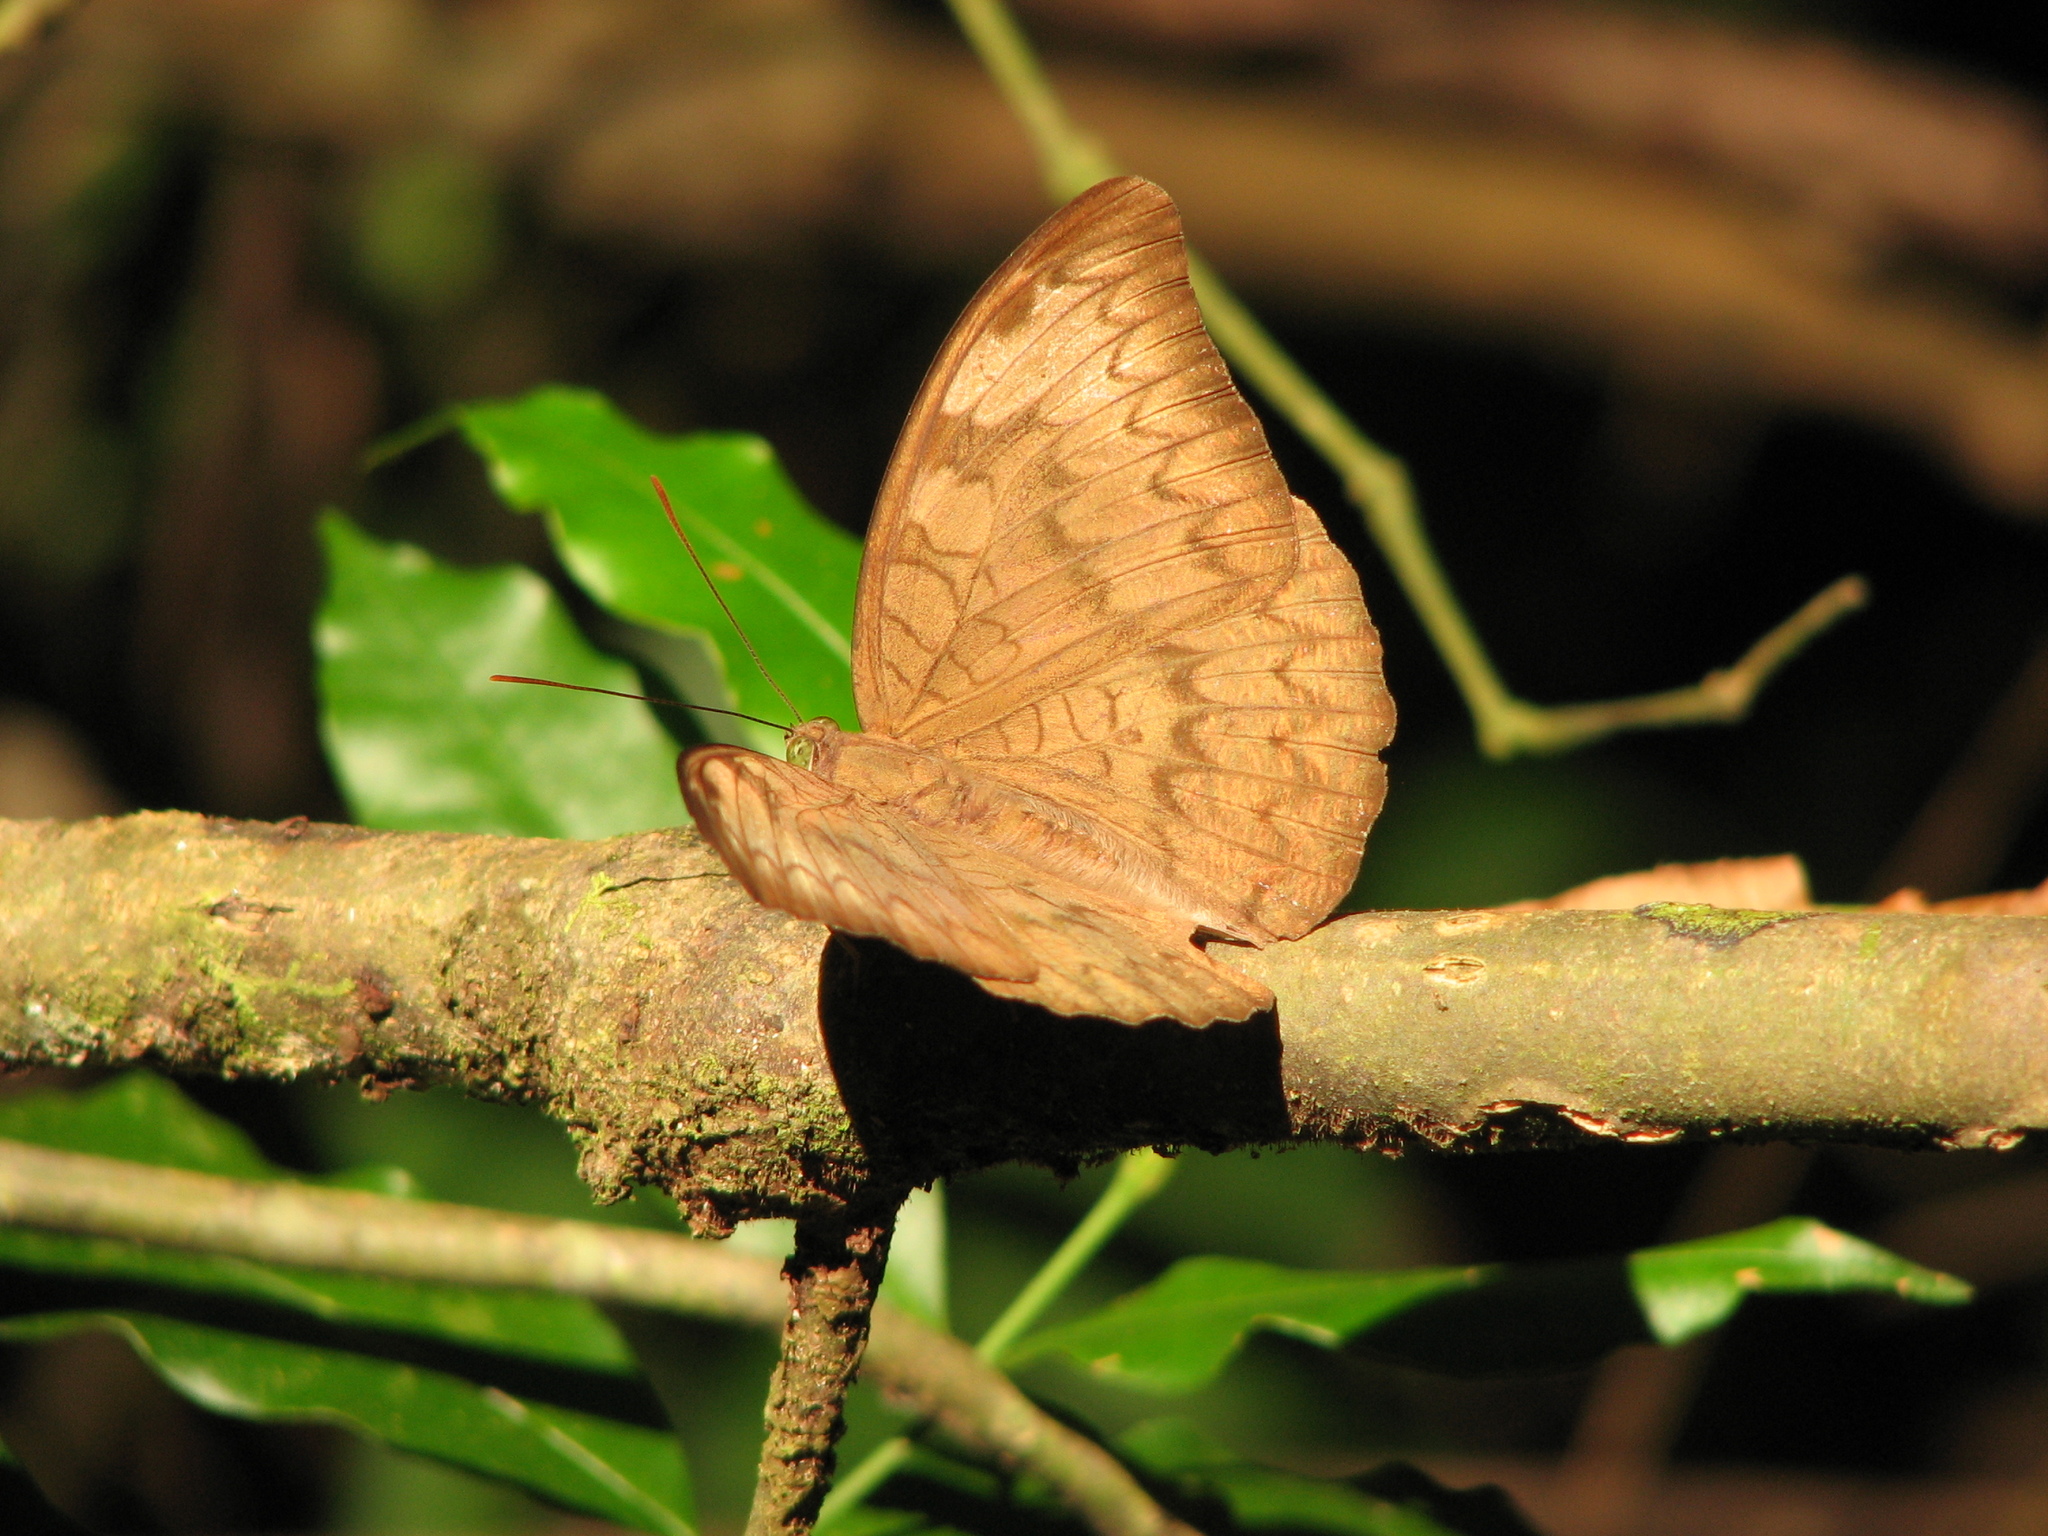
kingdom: Animalia
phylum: Arthropoda
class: Insecta
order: Lepidoptera
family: Nymphalidae
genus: Euthalia
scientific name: Euthalia aconthea
